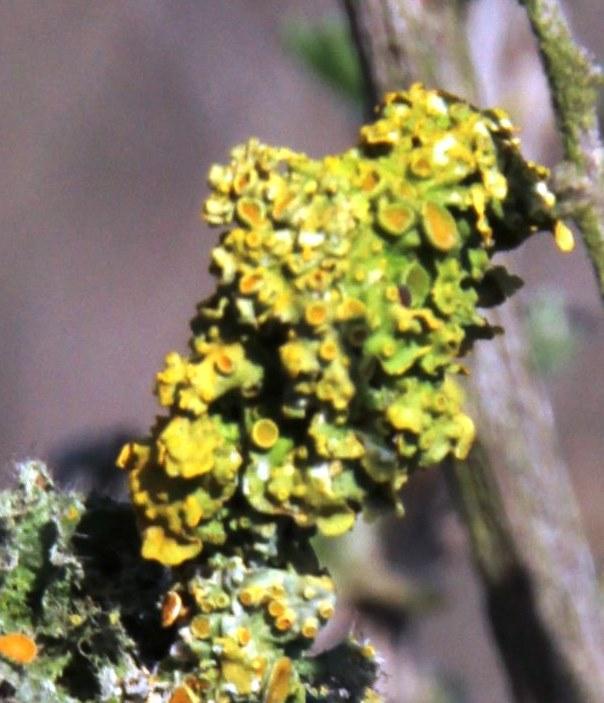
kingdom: Fungi
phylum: Ascomycota
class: Lecanoromycetes
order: Teloschistales
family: Teloschistaceae
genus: Xanthoria
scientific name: Xanthoria parietina
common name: Common orange lichen
